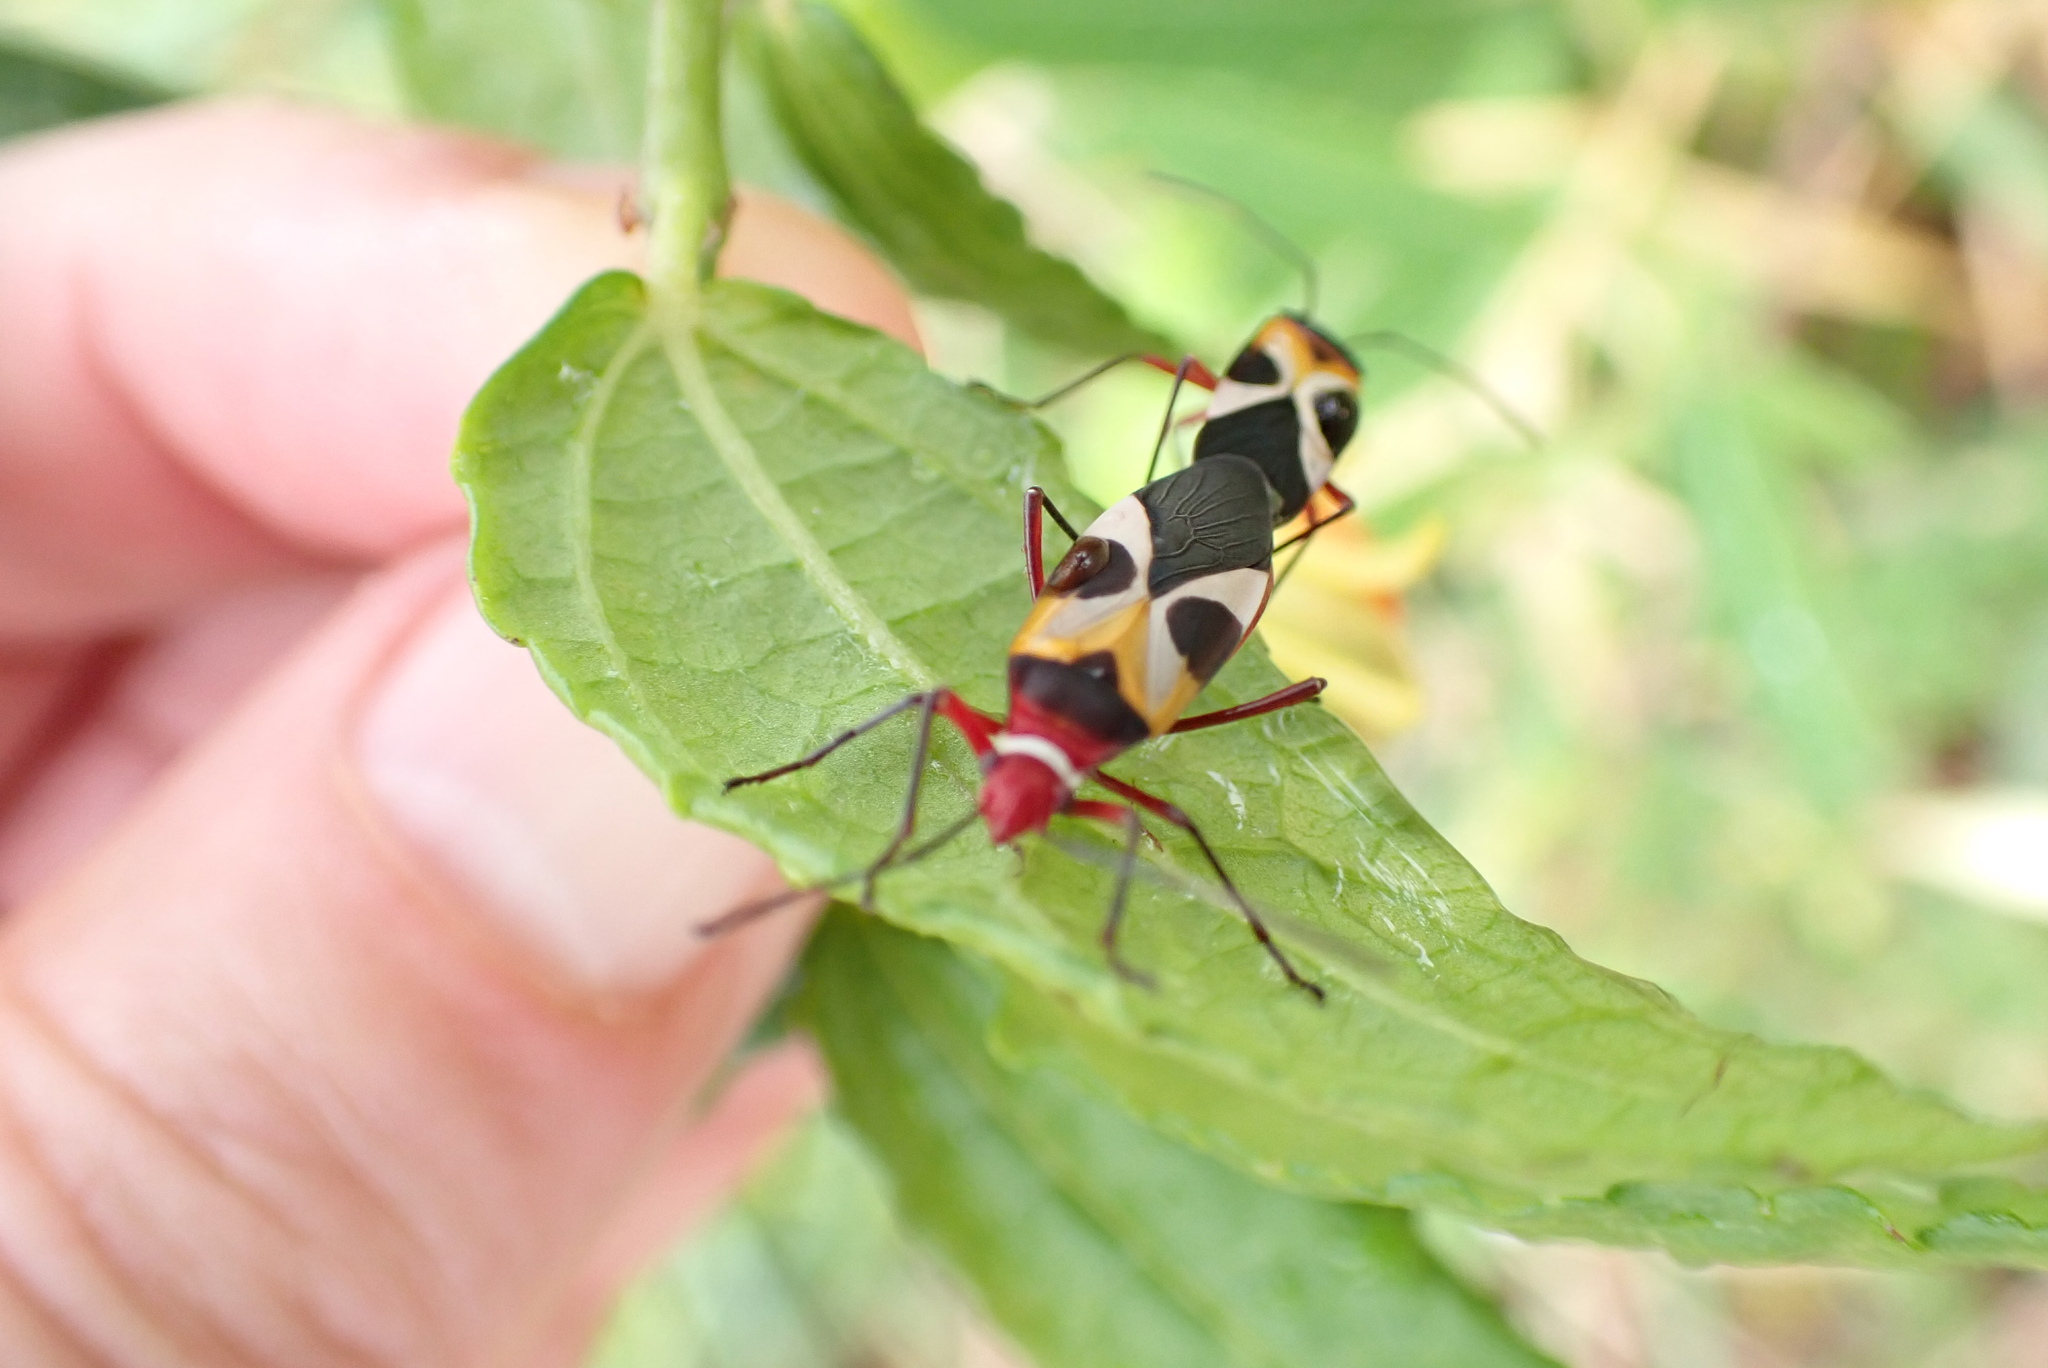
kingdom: Animalia
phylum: Arthropoda
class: Insecta
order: Hemiptera
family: Pyrrhocoridae
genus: Dysdercus
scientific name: Dysdercus concinnus
